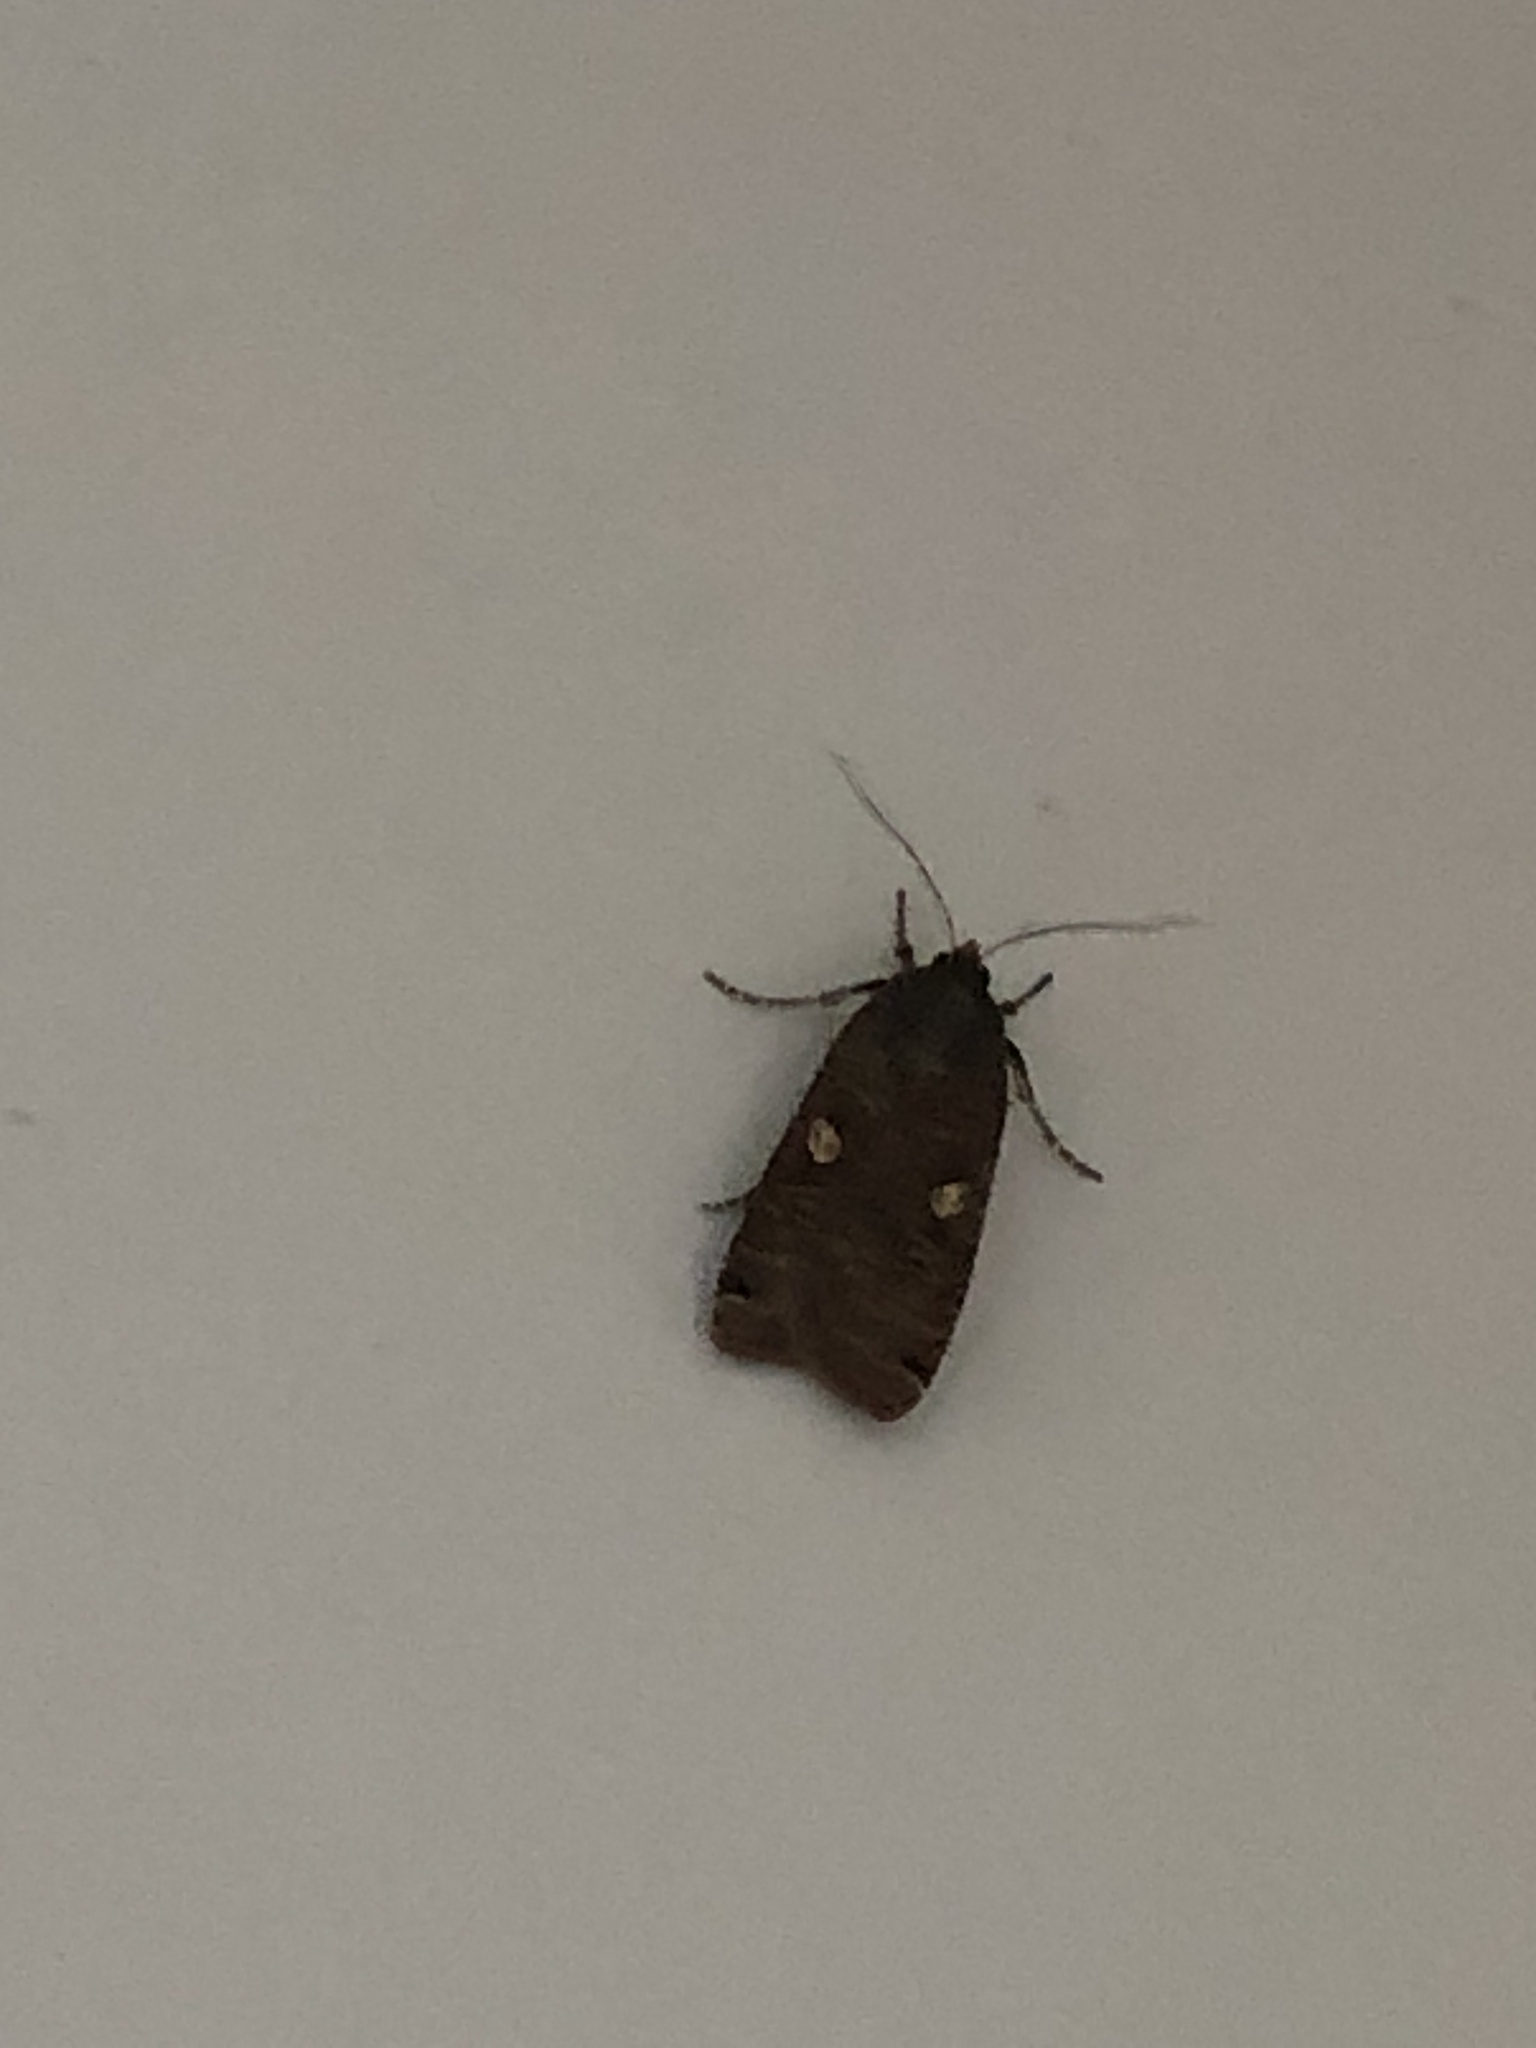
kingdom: Animalia
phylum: Arthropoda
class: Insecta
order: Lepidoptera
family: Noctuidae
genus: Noctua
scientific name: Noctua pronuba
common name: Large yellow underwing
